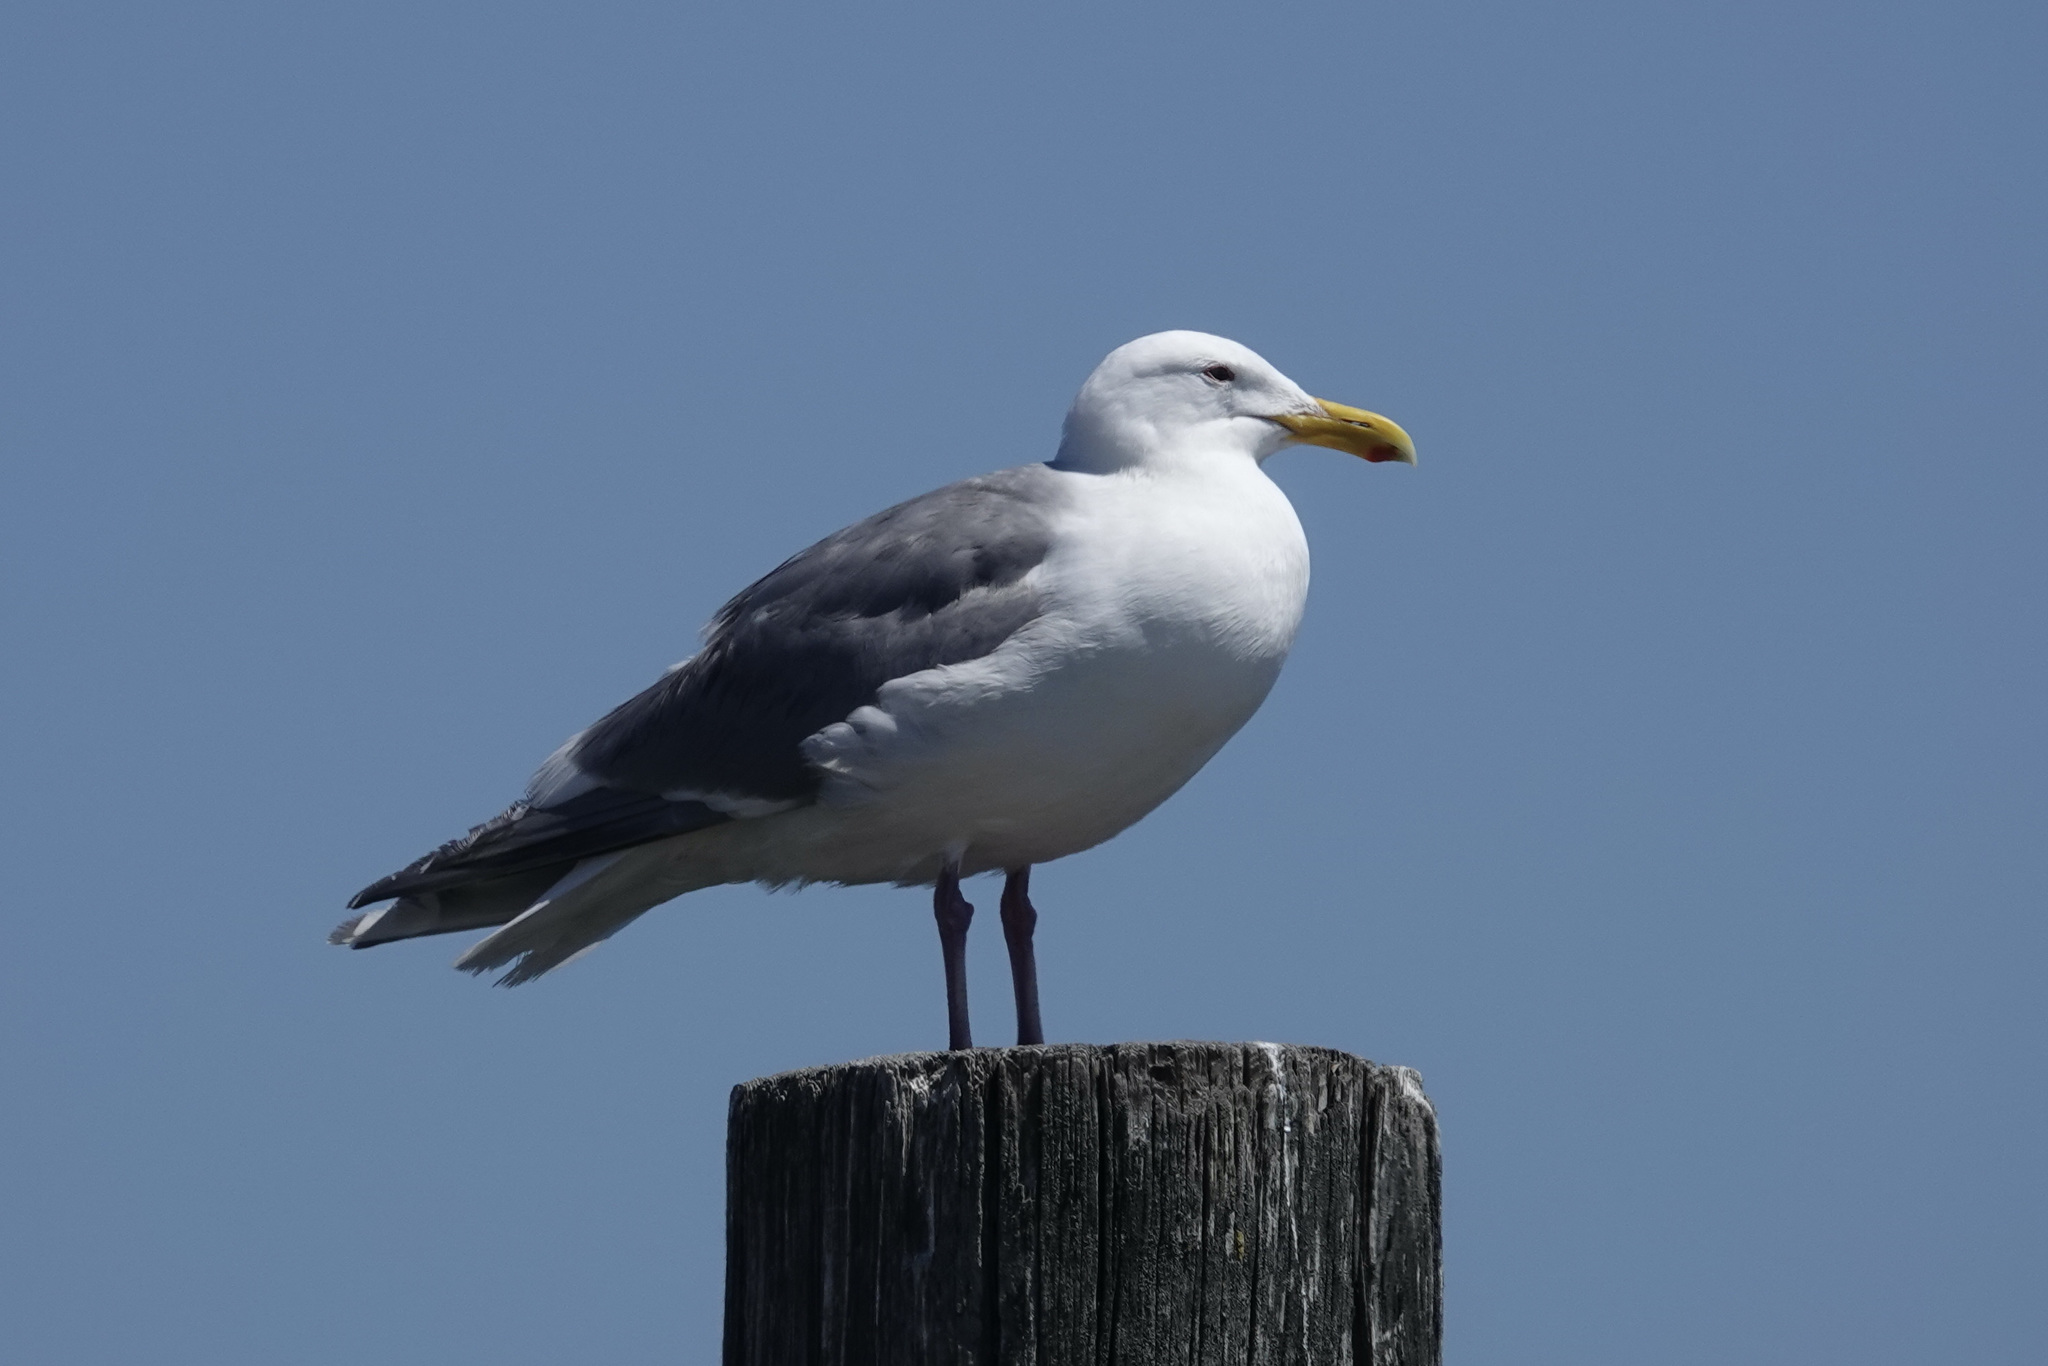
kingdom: Animalia
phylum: Chordata
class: Aves
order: Charadriiformes
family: Laridae
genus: Larus
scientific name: Larus
